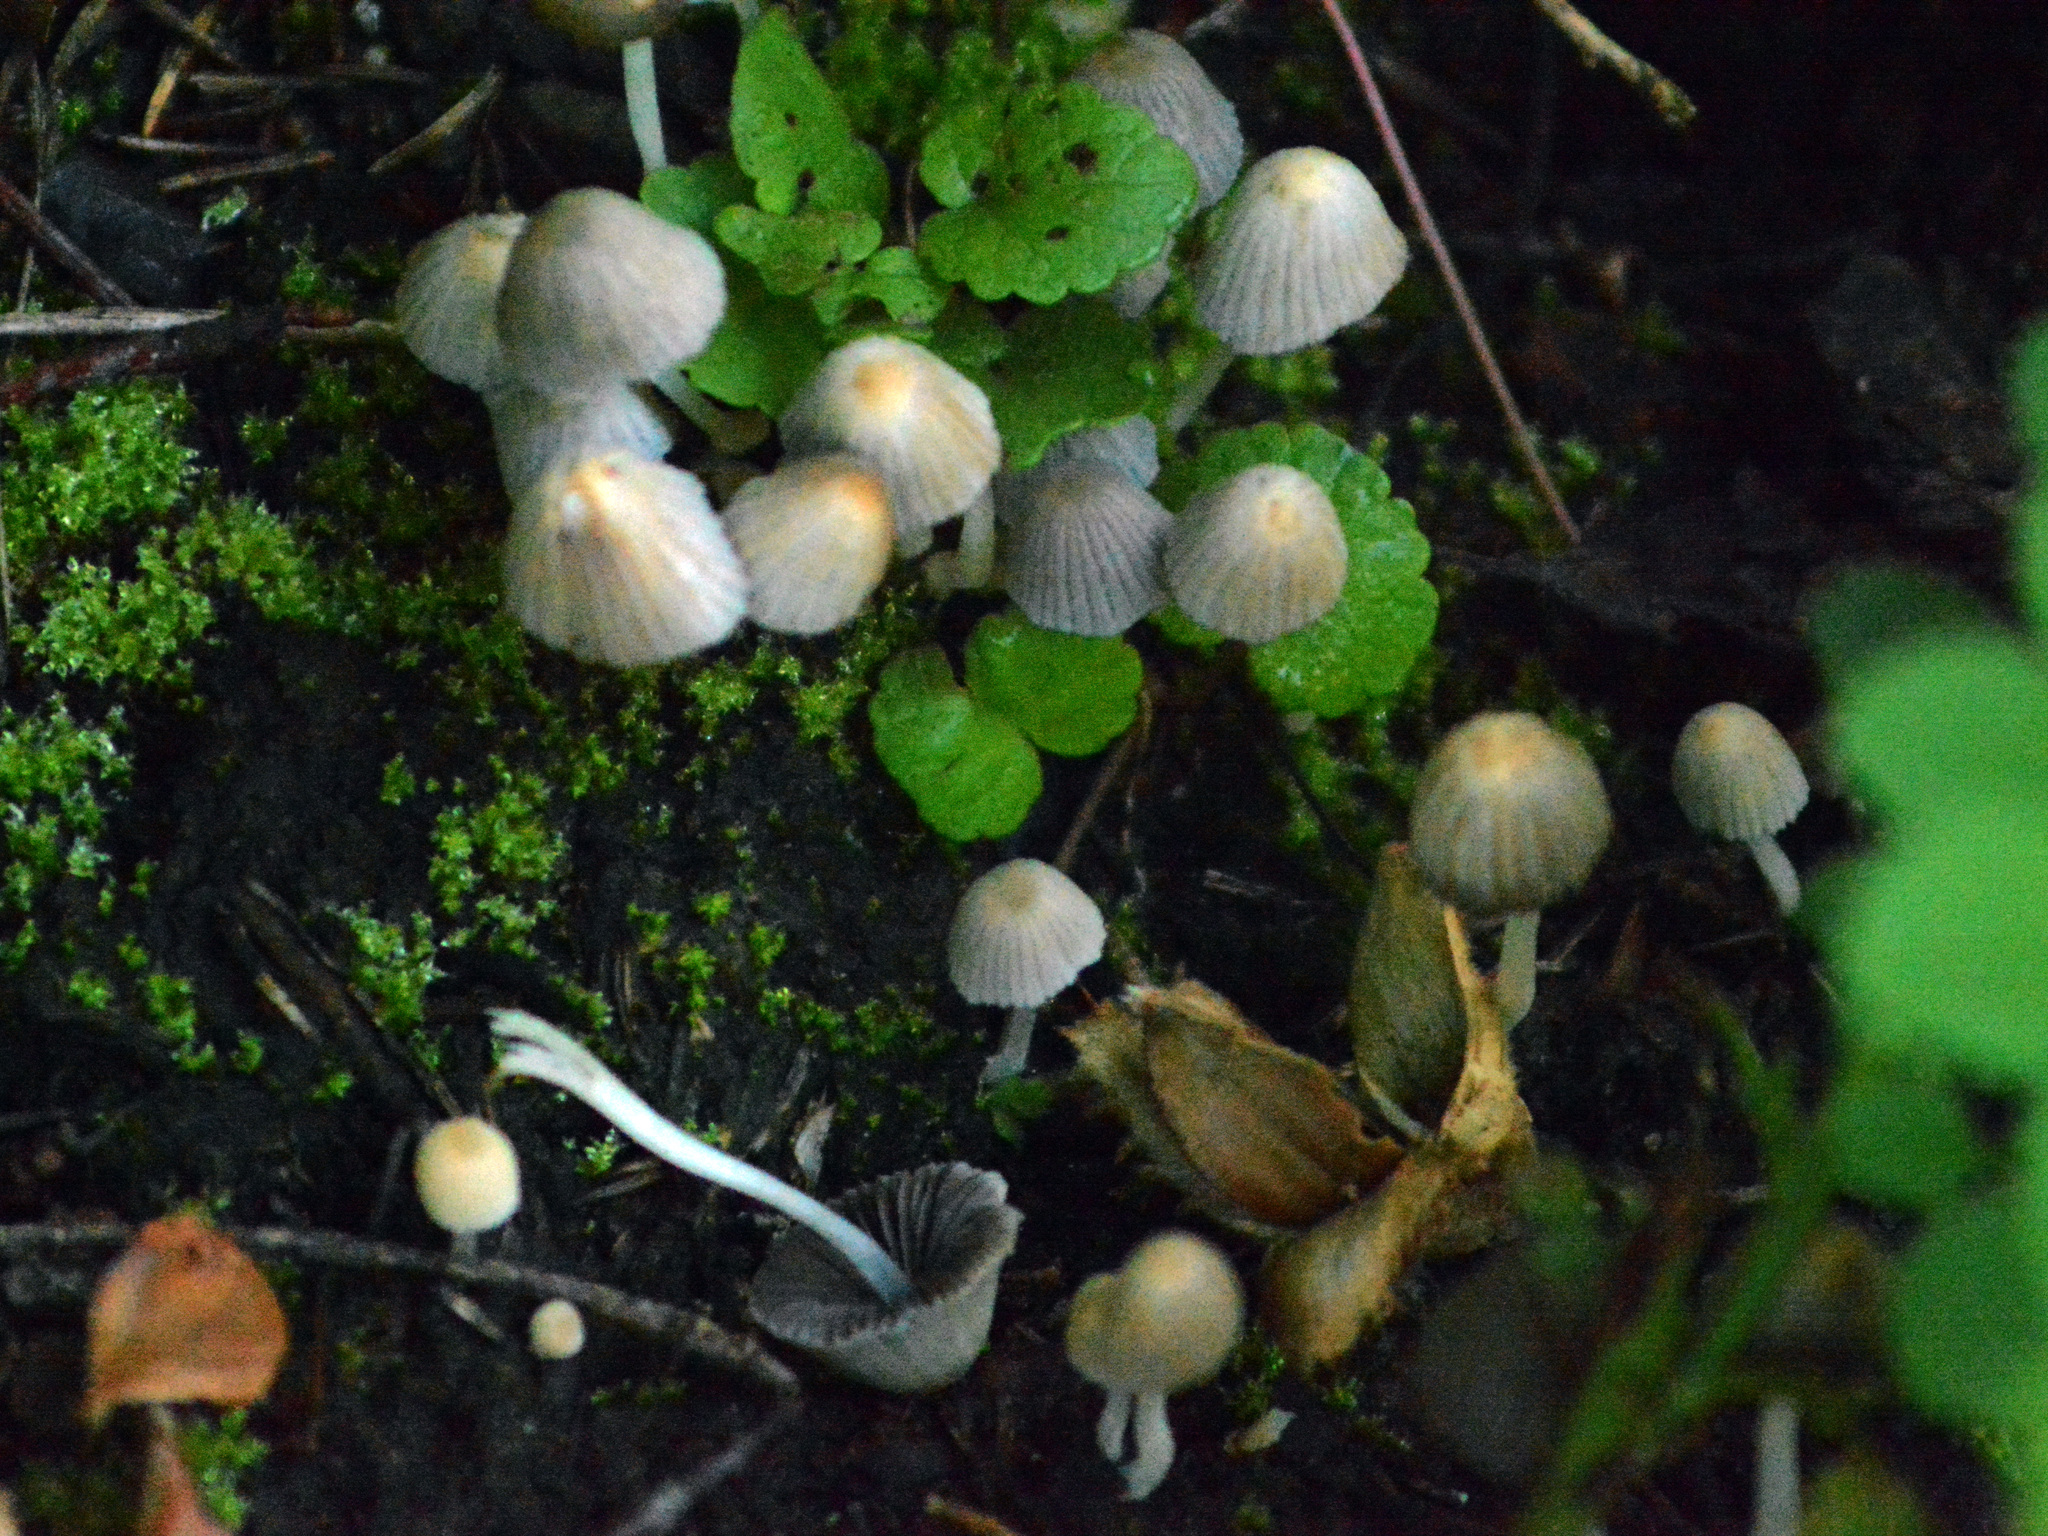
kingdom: Fungi
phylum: Basidiomycota
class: Agaricomycetes
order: Agaricales
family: Psathyrellaceae
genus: Coprinellus
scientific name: Coprinellus disseminatus
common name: Fairies' bonnets
